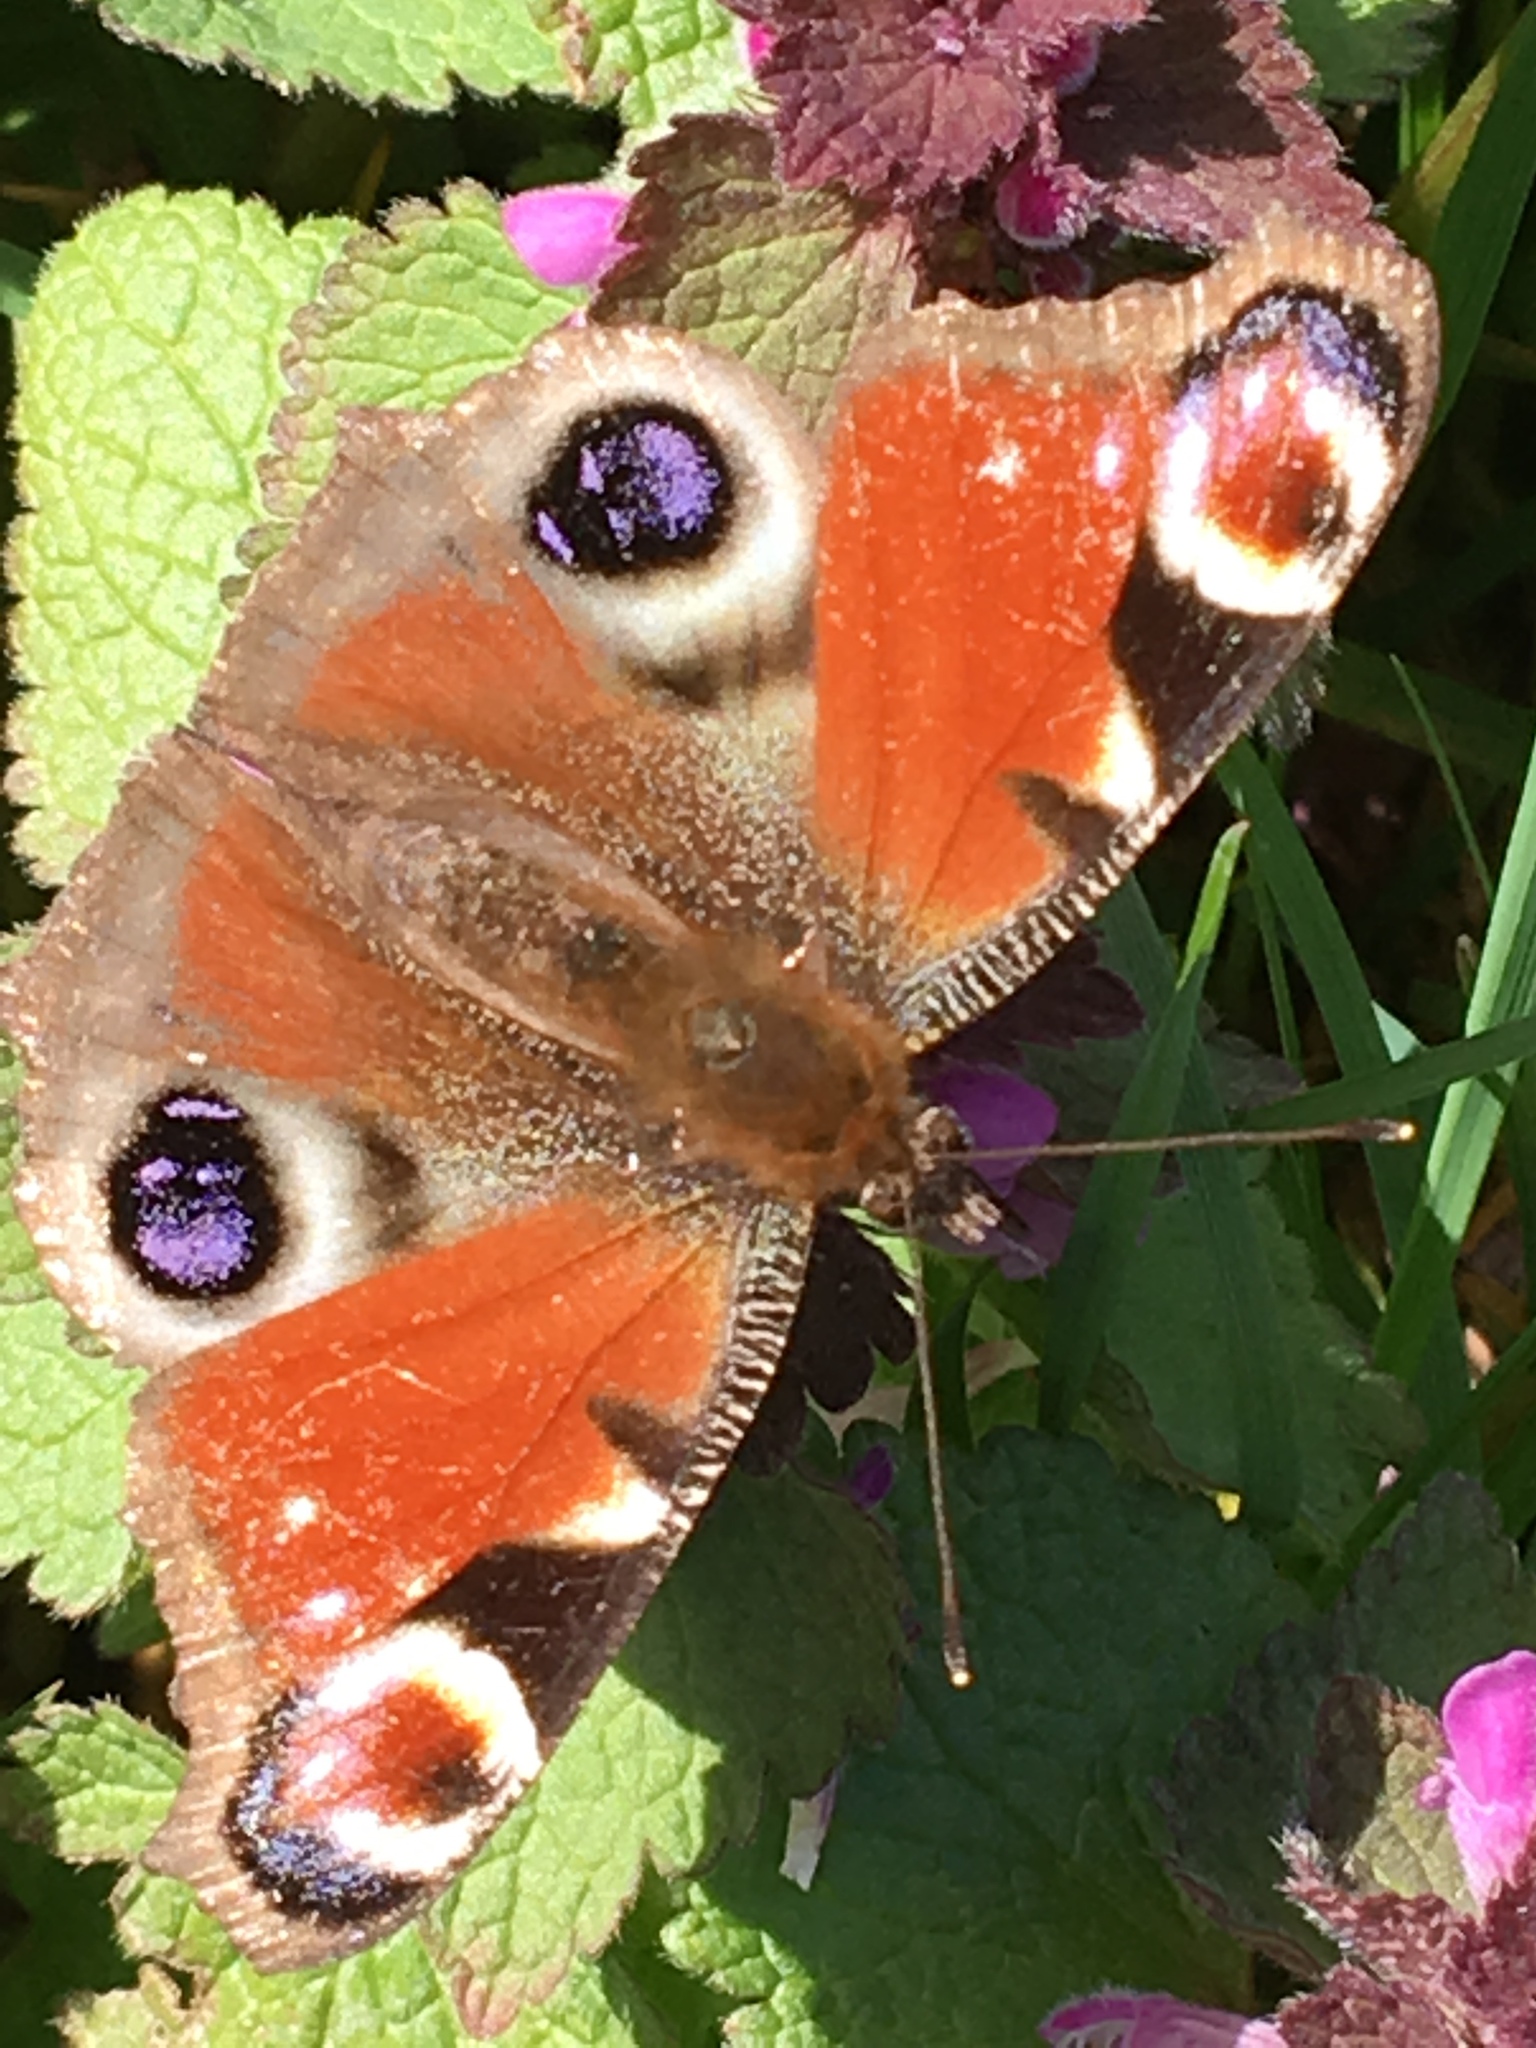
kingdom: Animalia
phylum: Arthropoda
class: Insecta
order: Lepidoptera
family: Nymphalidae
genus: Aglais
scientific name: Aglais io
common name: Peacock
